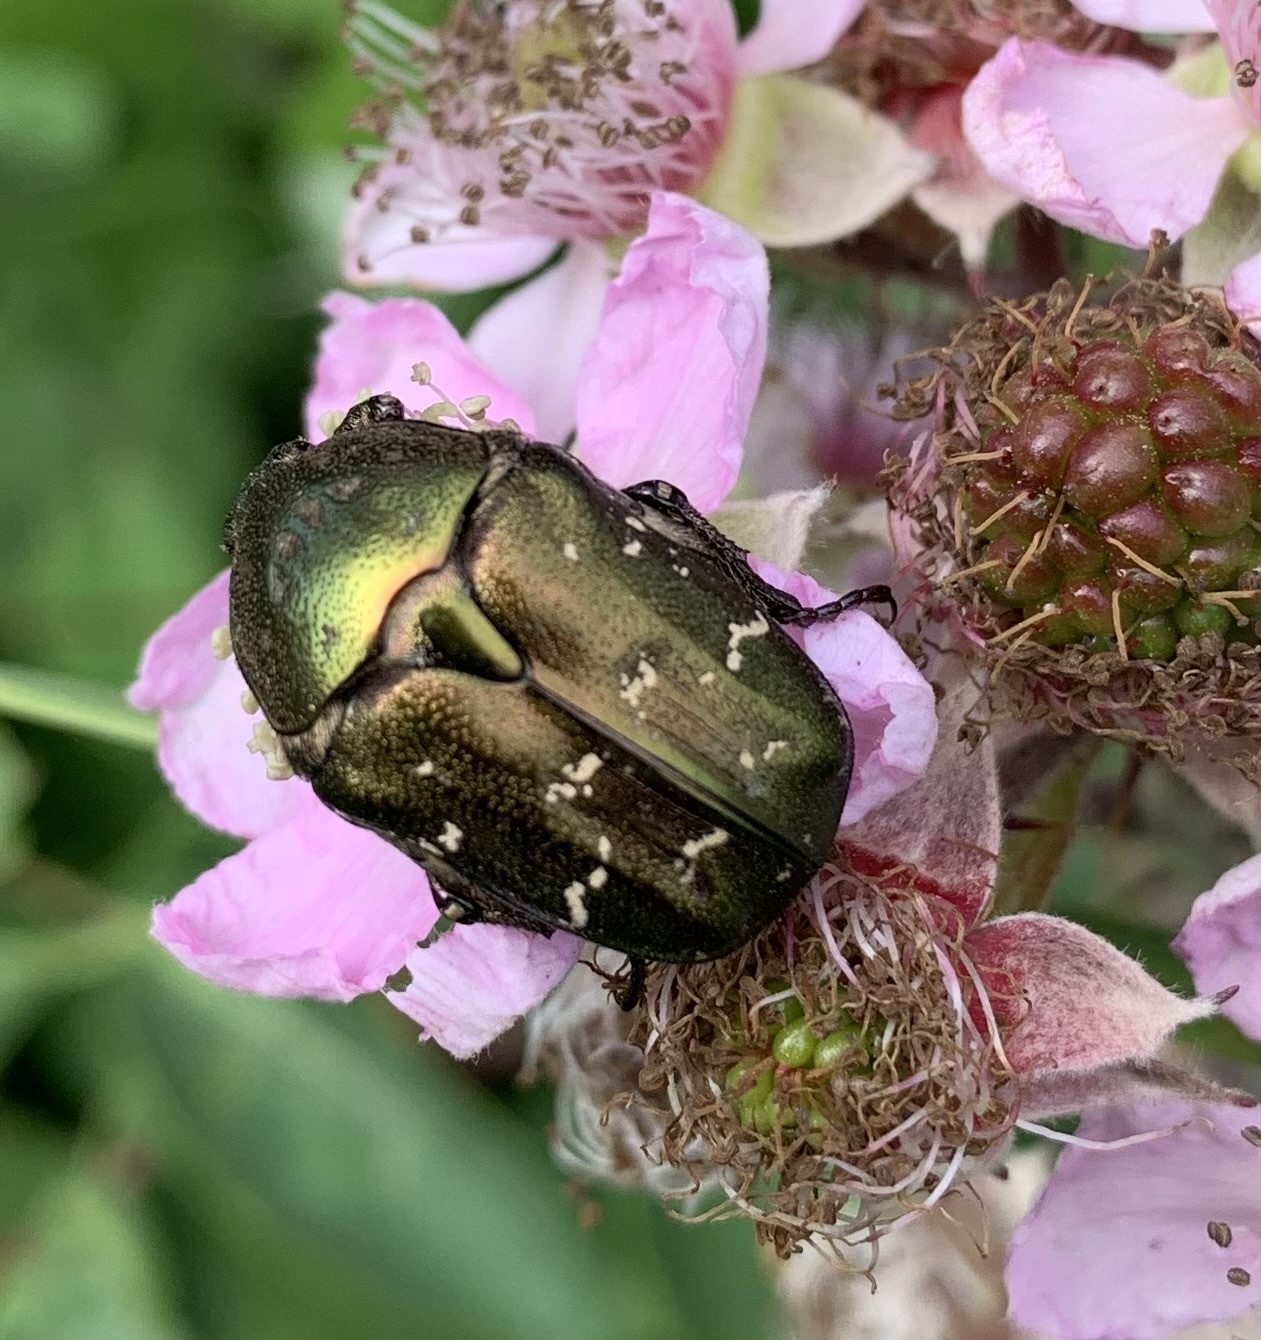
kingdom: Animalia
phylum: Arthropoda
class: Insecta
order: Coleoptera
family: Scarabaeidae
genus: Protaetia
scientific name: Protaetia cuprea
